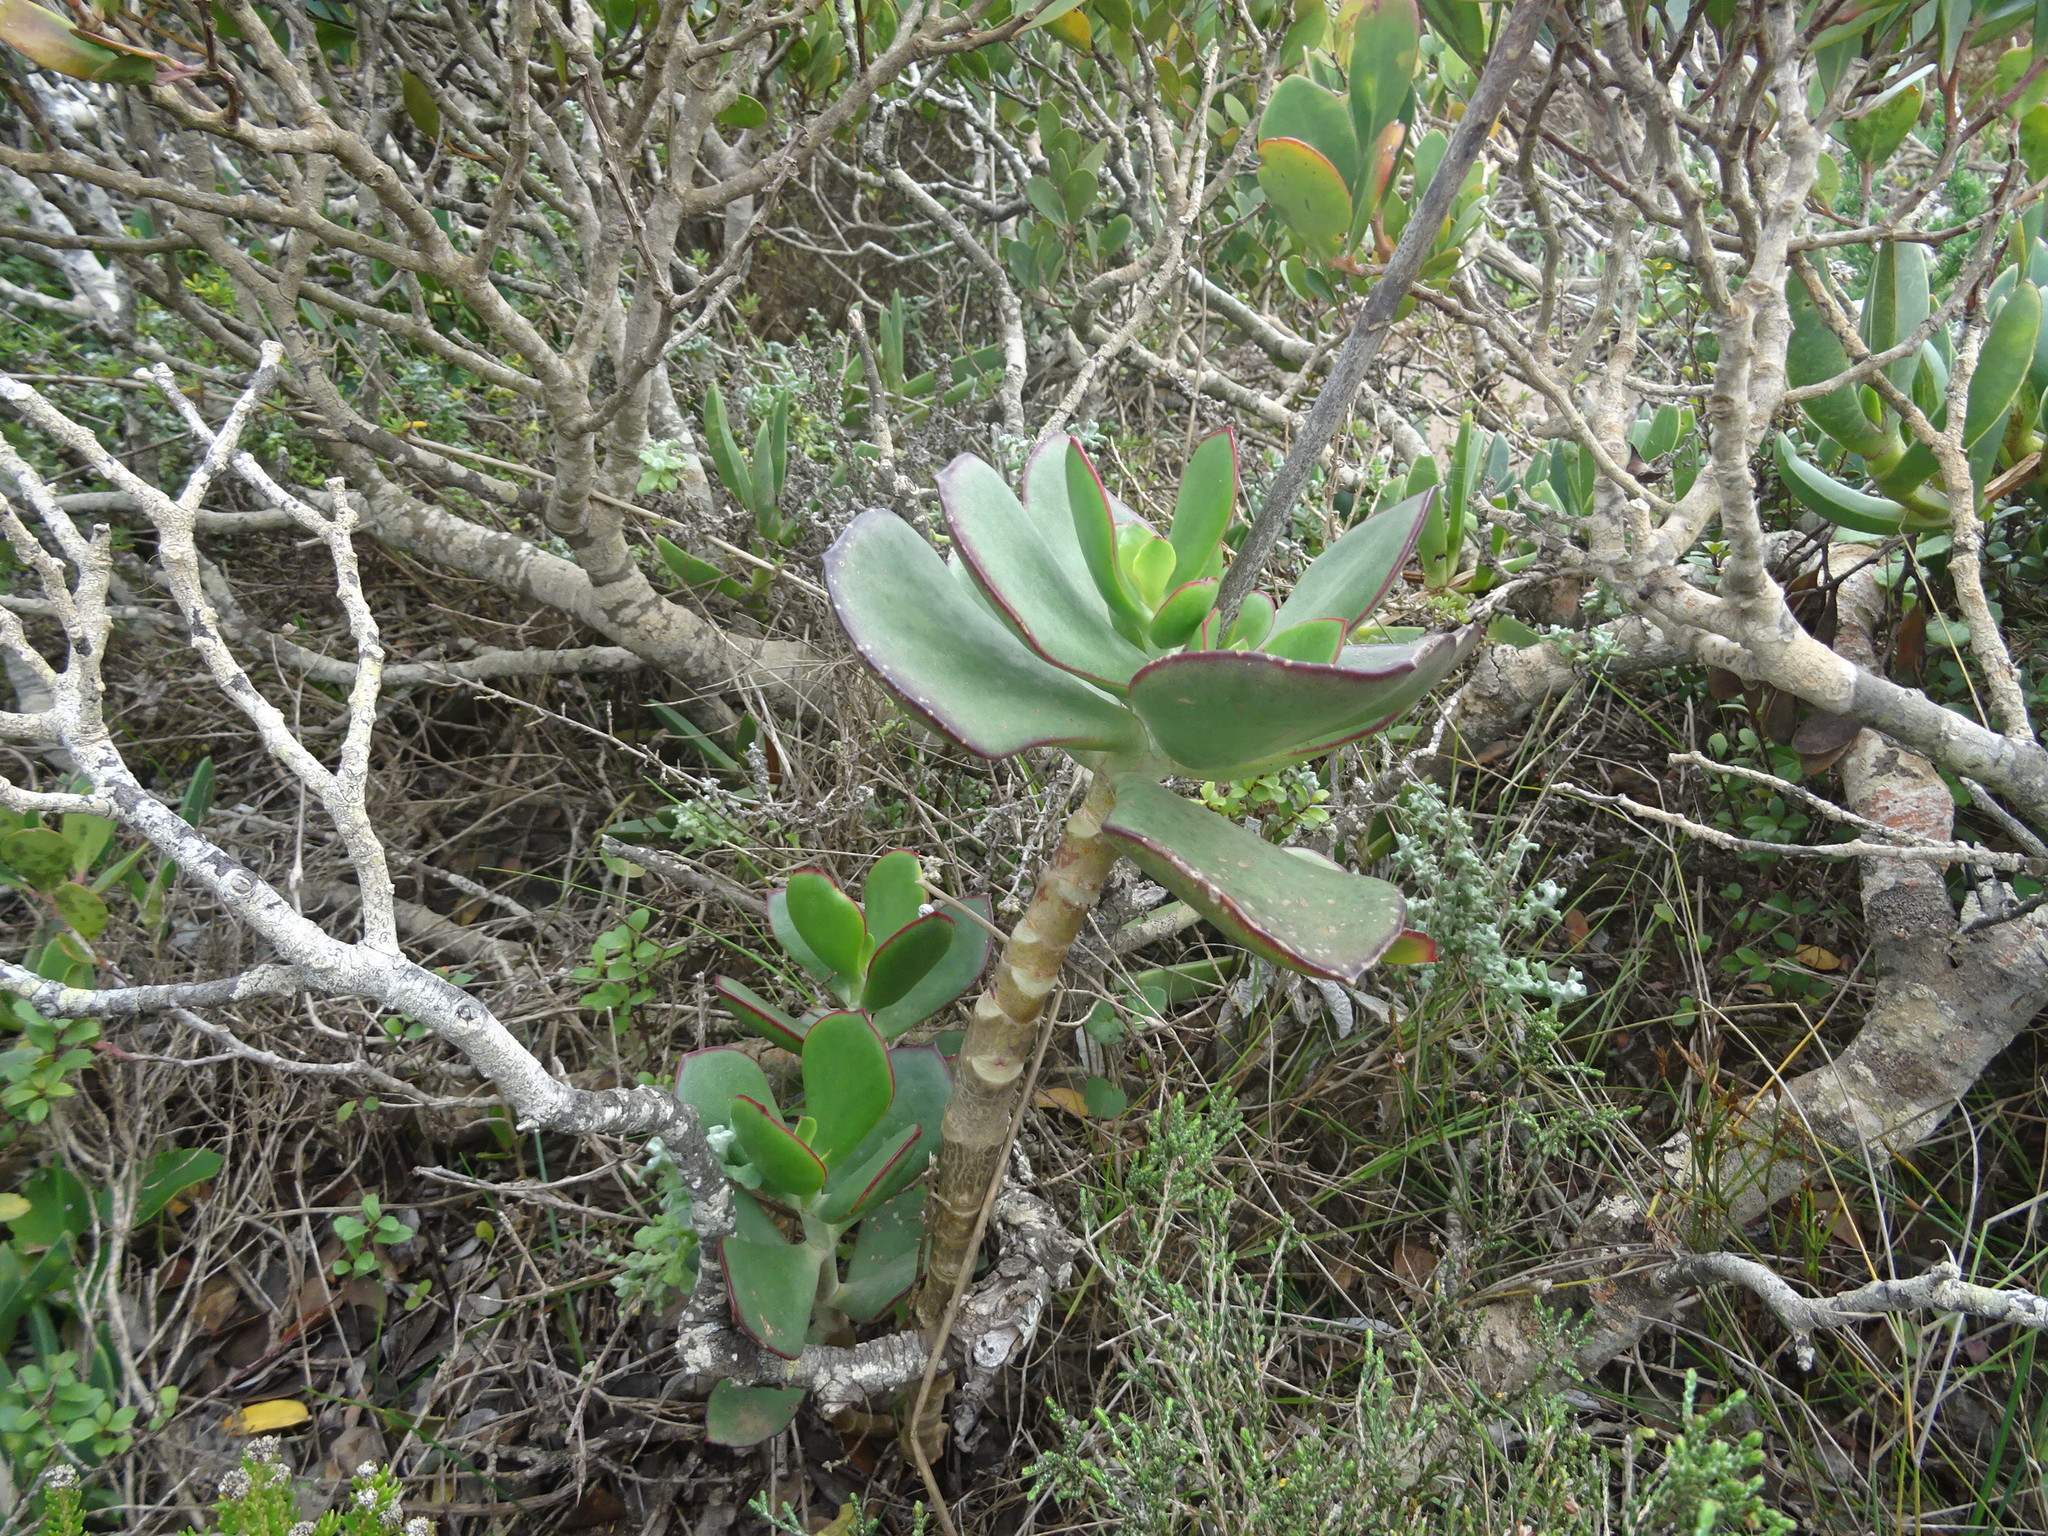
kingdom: Plantae
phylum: Tracheophyta
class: Magnoliopsida
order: Saxifragales
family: Crassulaceae
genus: Cotyledon
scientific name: Cotyledon orbiculata
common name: Pig's ear
